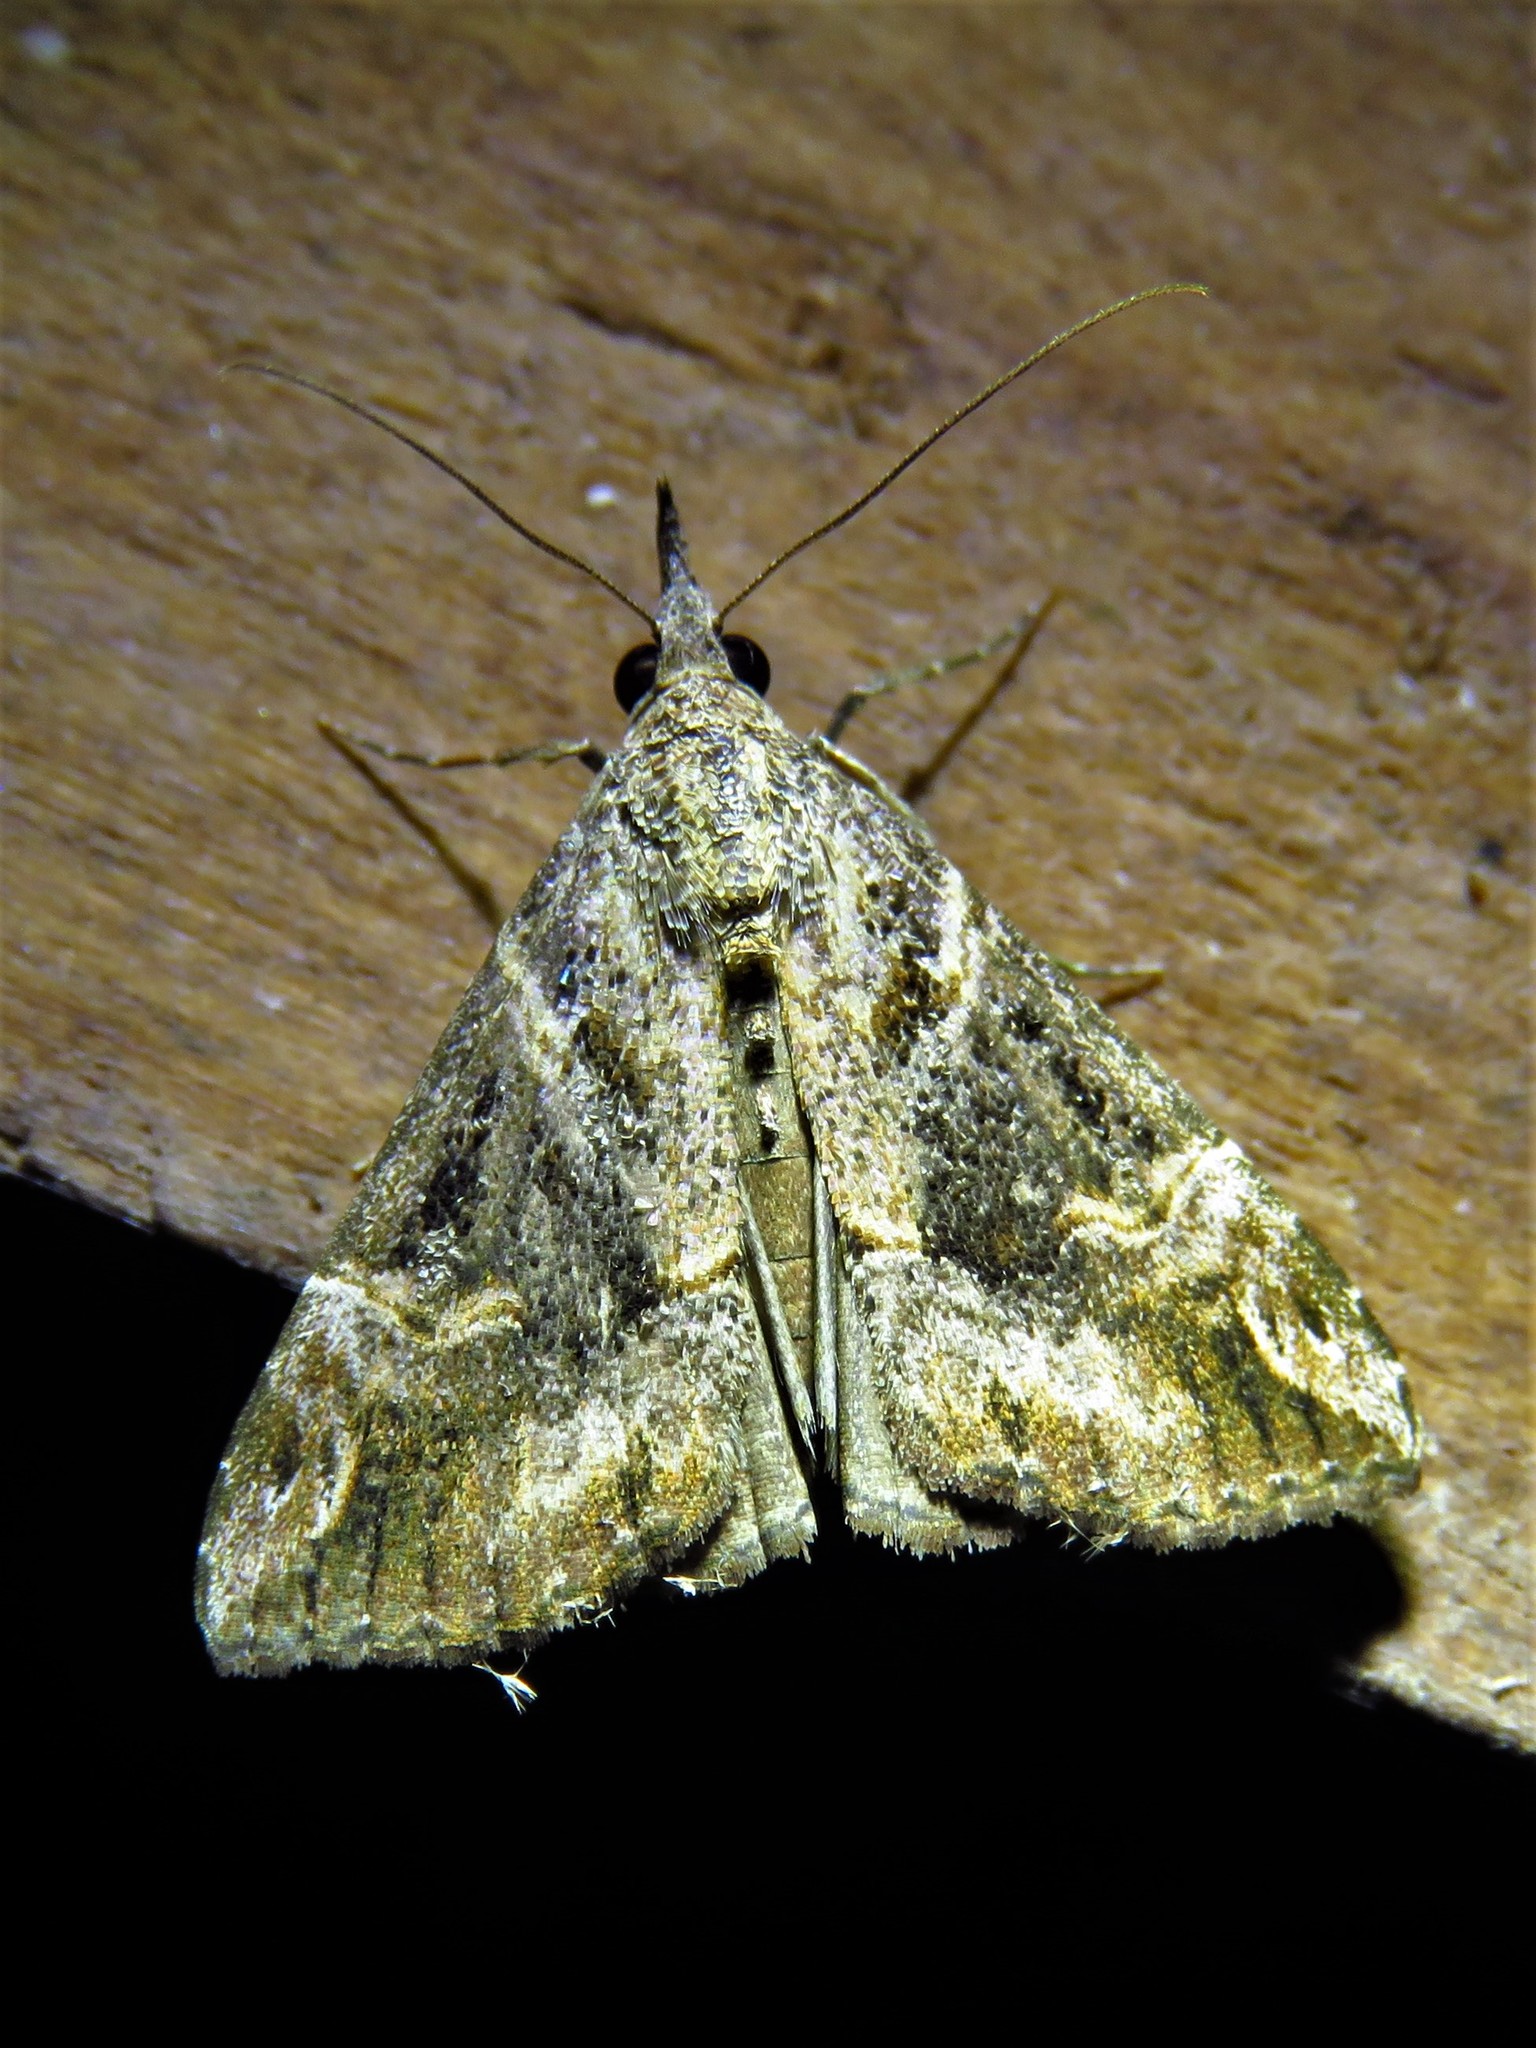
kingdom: Animalia
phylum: Arthropoda
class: Insecta
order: Lepidoptera
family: Erebidae
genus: Hypena
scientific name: Hypena strigatus
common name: Moth
